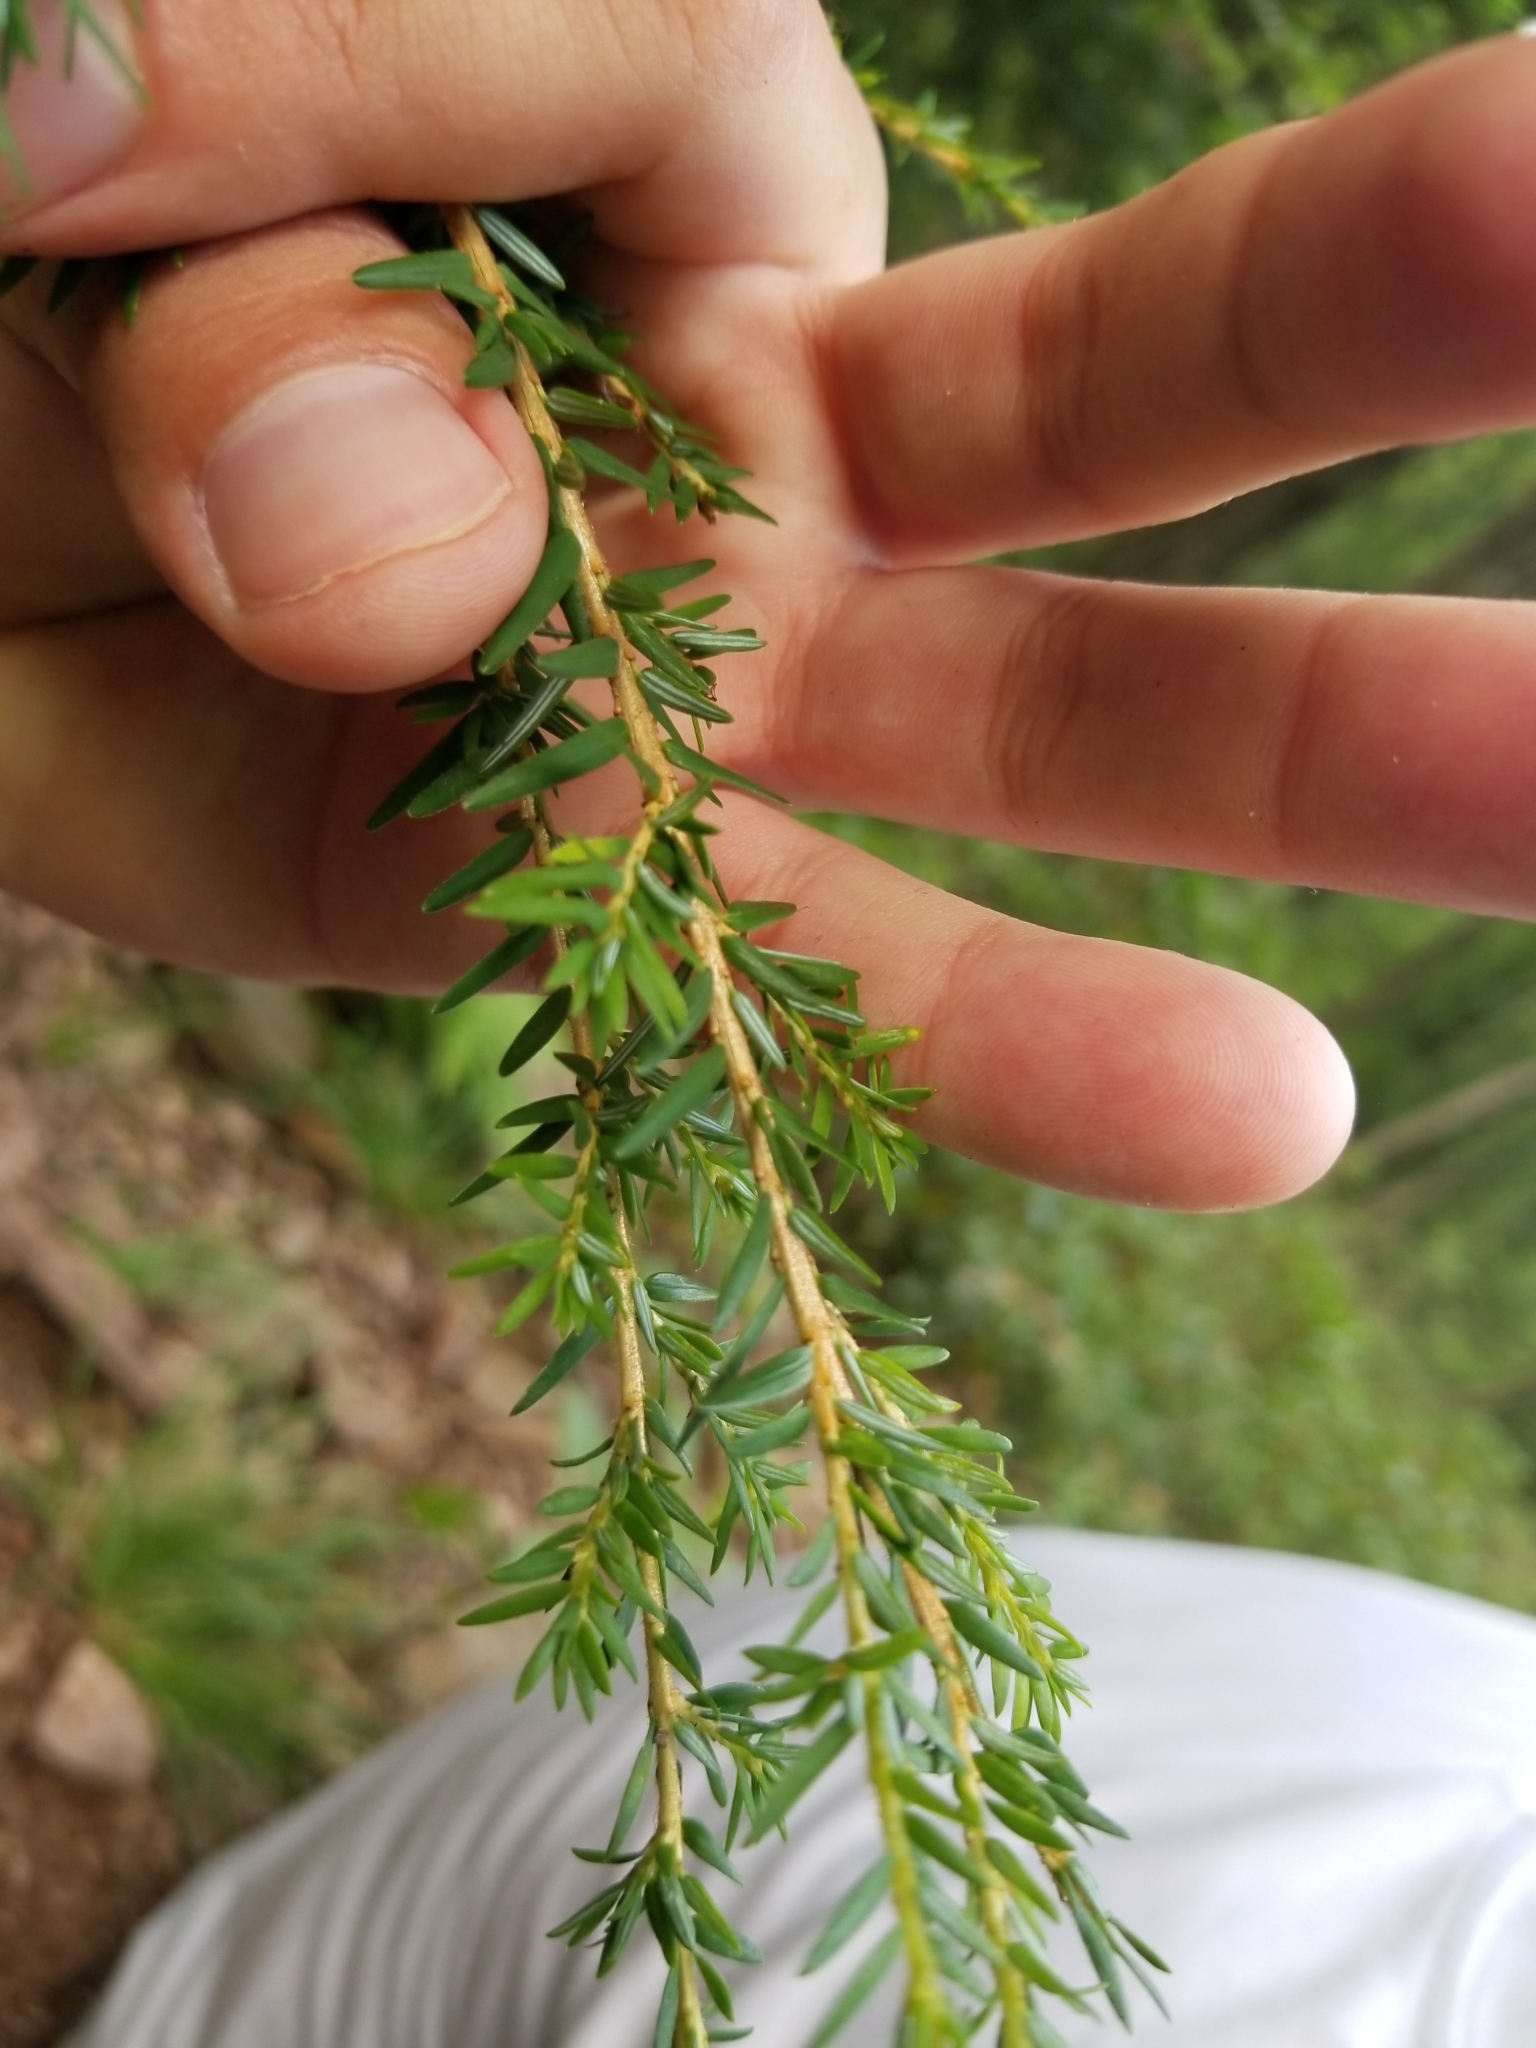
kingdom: Plantae
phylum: Tracheophyta
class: Pinopsida
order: Pinales
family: Pinaceae
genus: Tsuga
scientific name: Tsuga canadensis
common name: Eastern hemlock
